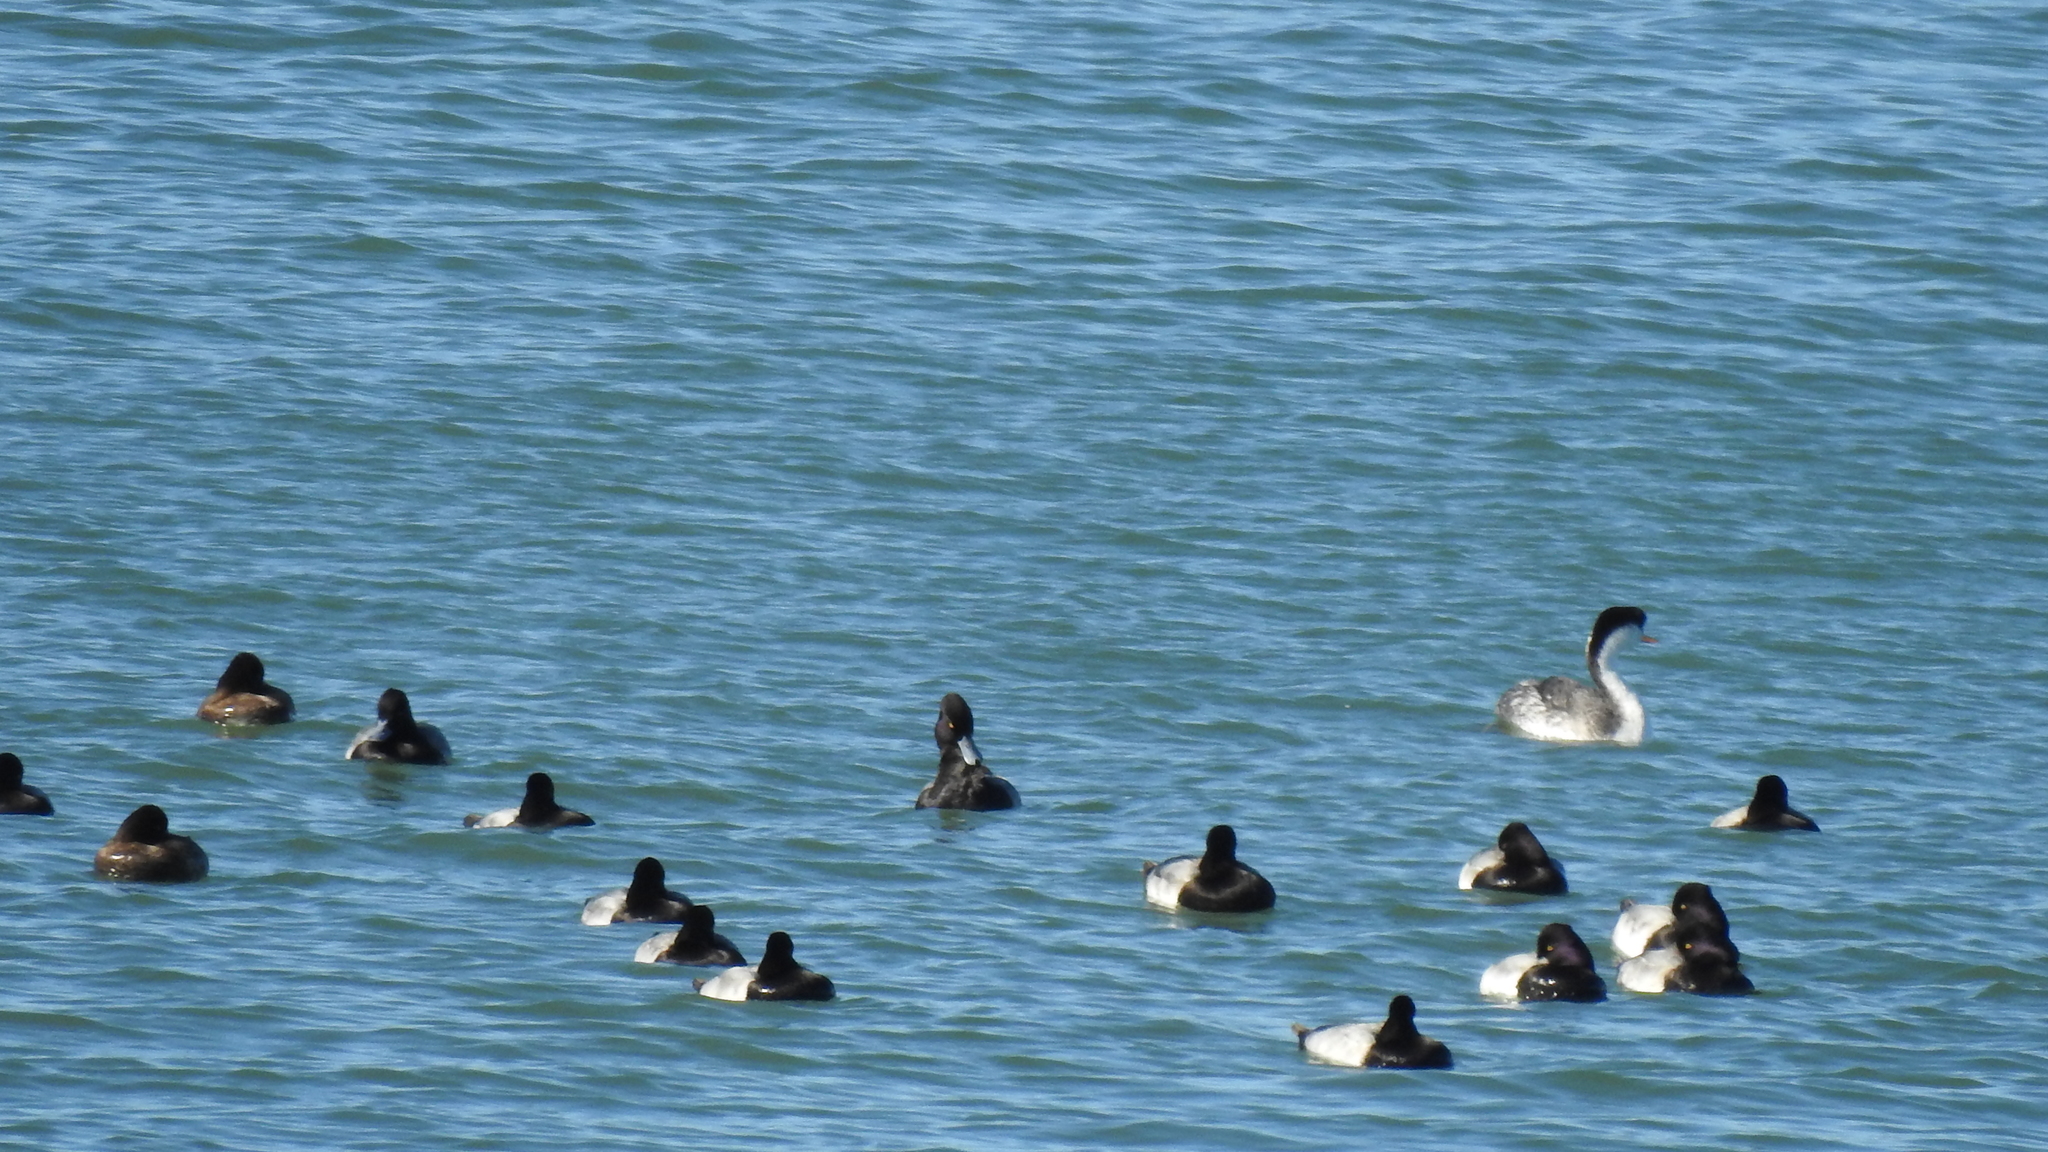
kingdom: Animalia
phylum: Chordata
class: Aves
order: Podicipediformes
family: Podicipedidae
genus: Aechmophorus
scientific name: Aechmophorus occidentalis
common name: Western grebe
